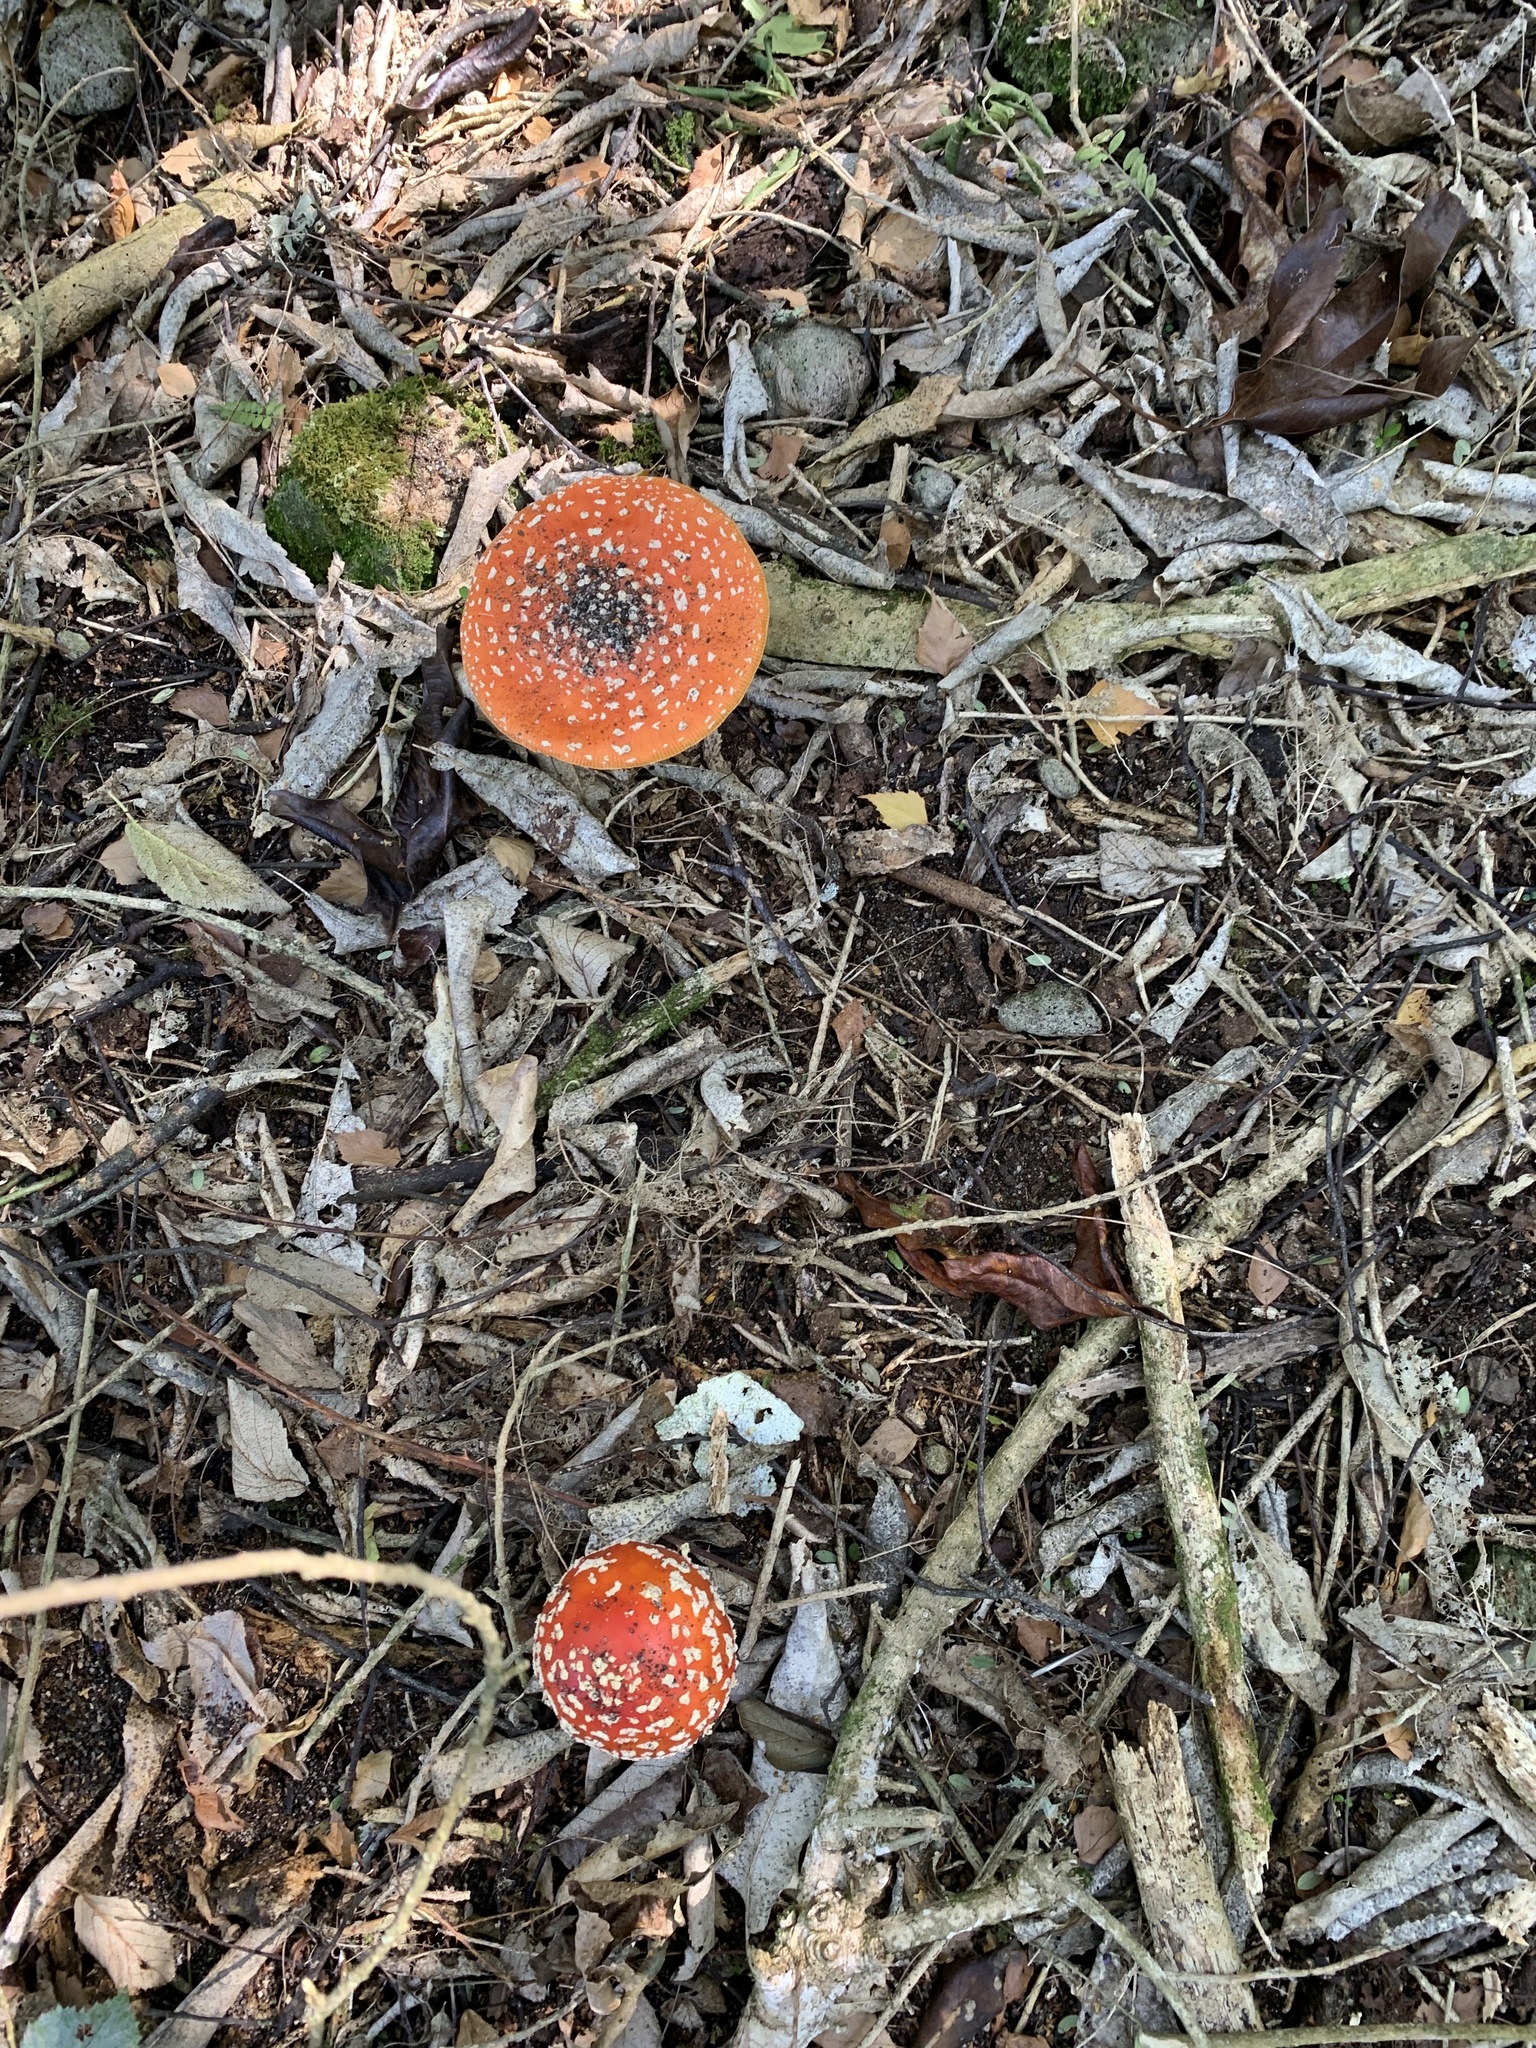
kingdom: Fungi
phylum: Basidiomycota
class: Agaricomycetes
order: Agaricales
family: Amanitaceae
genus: Amanita
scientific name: Amanita muscaria
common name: Fly agaric
